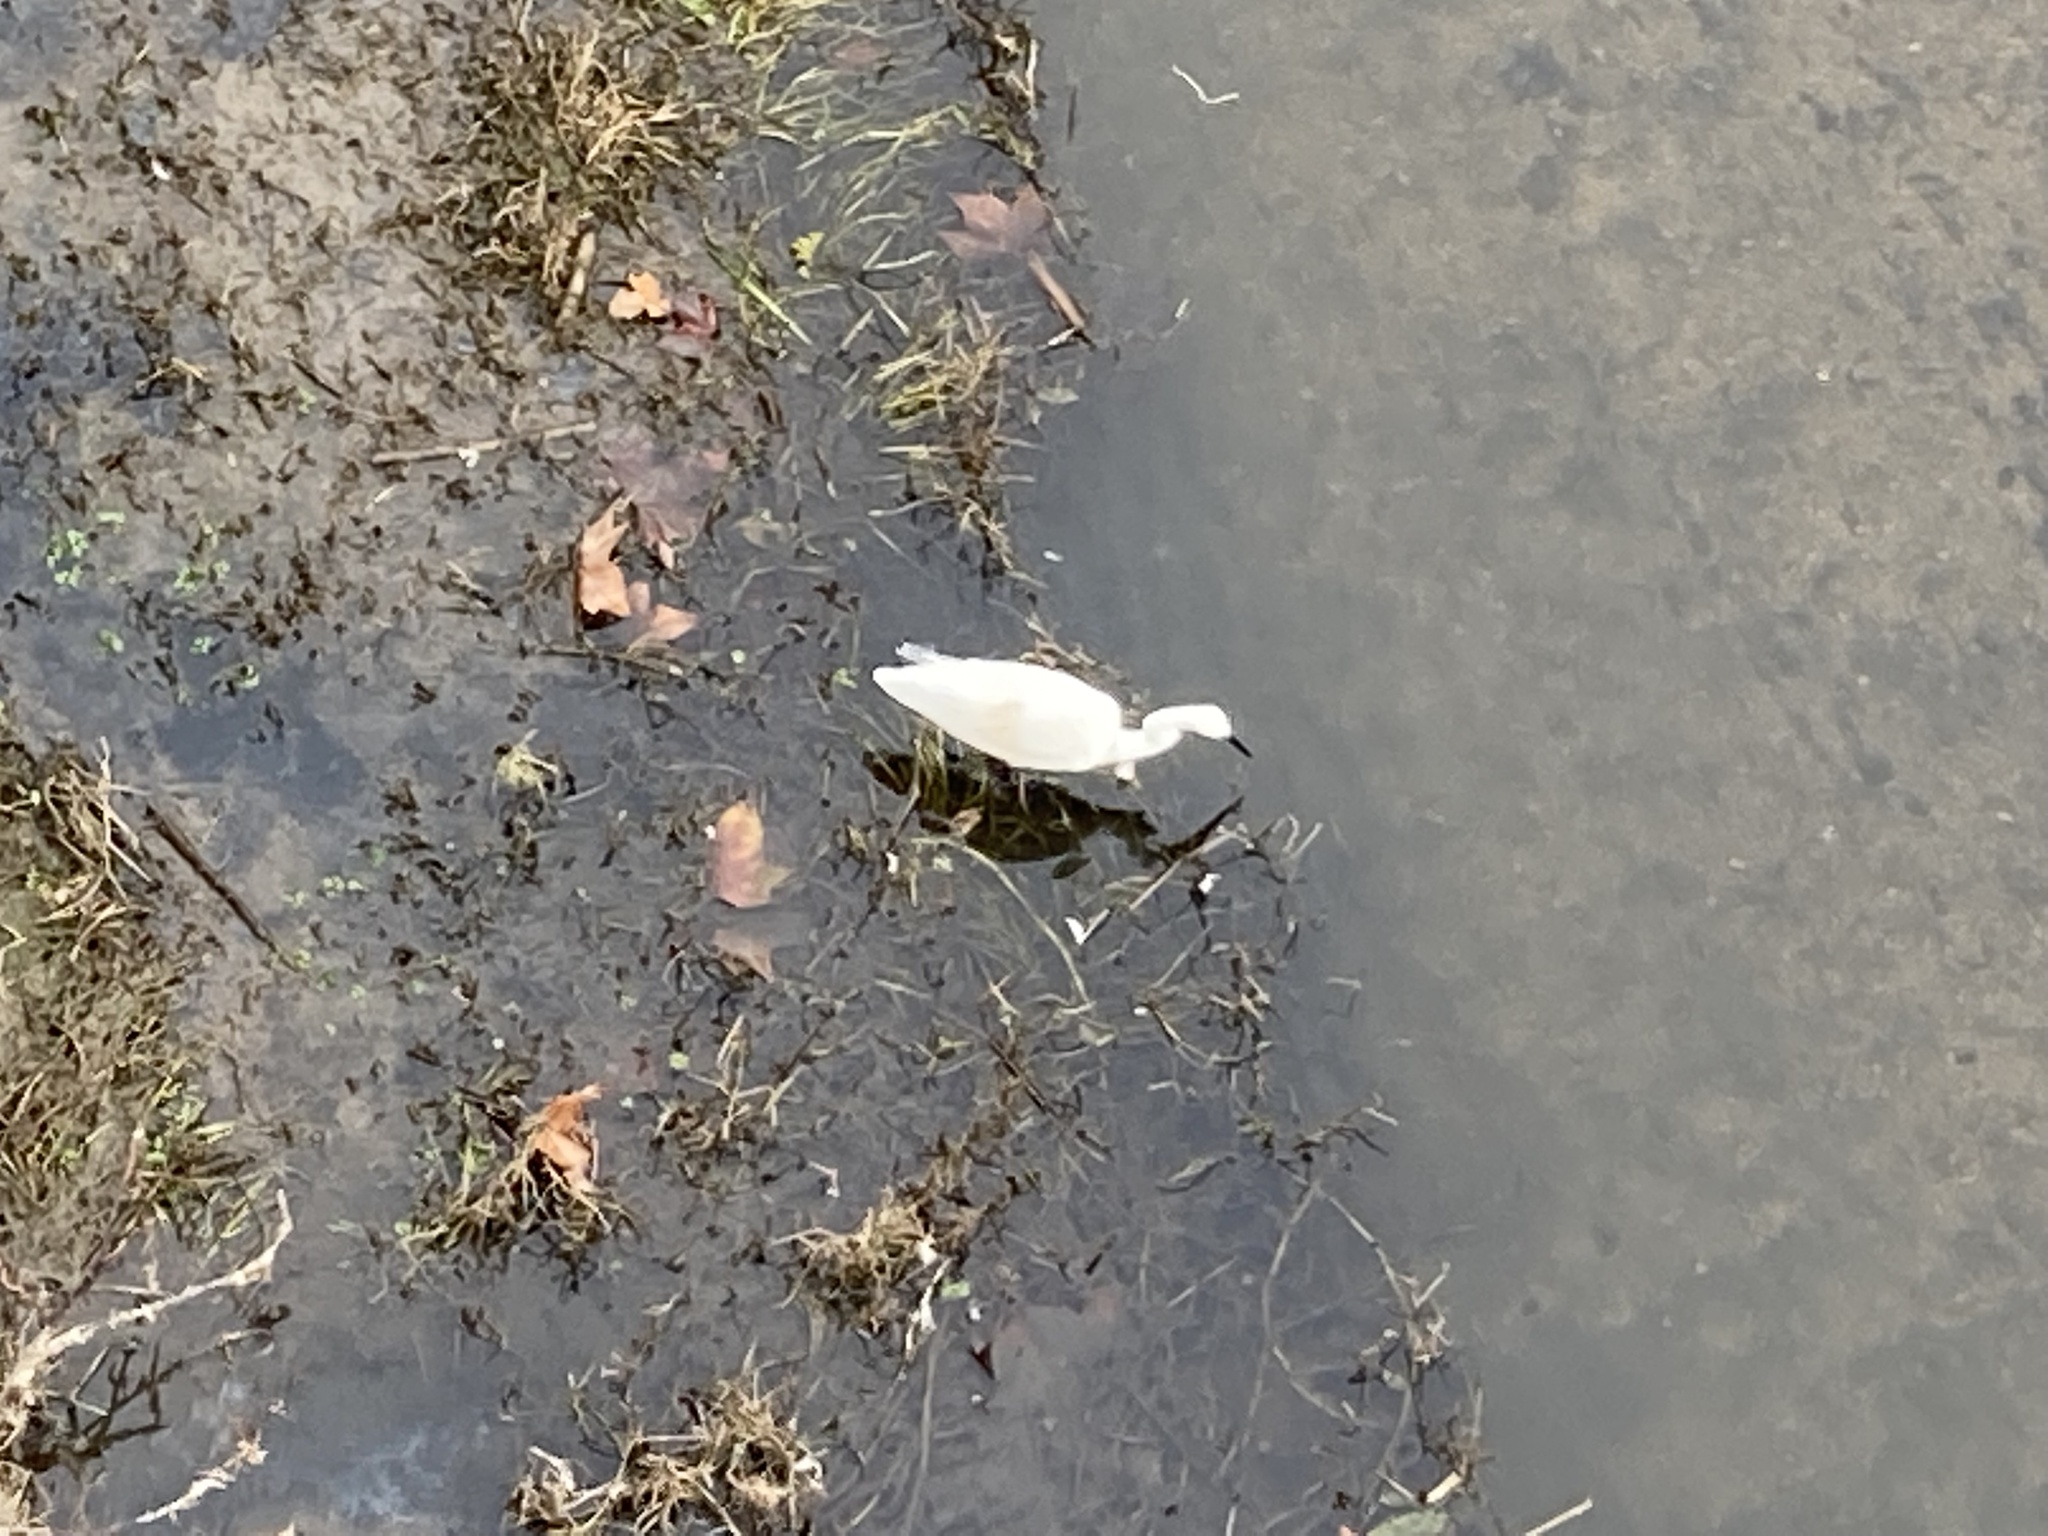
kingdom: Animalia
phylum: Chordata
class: Aves
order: Pelecaniformes
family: Ardeidae
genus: Egretta
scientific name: Egretta garzetta
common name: Little egret
